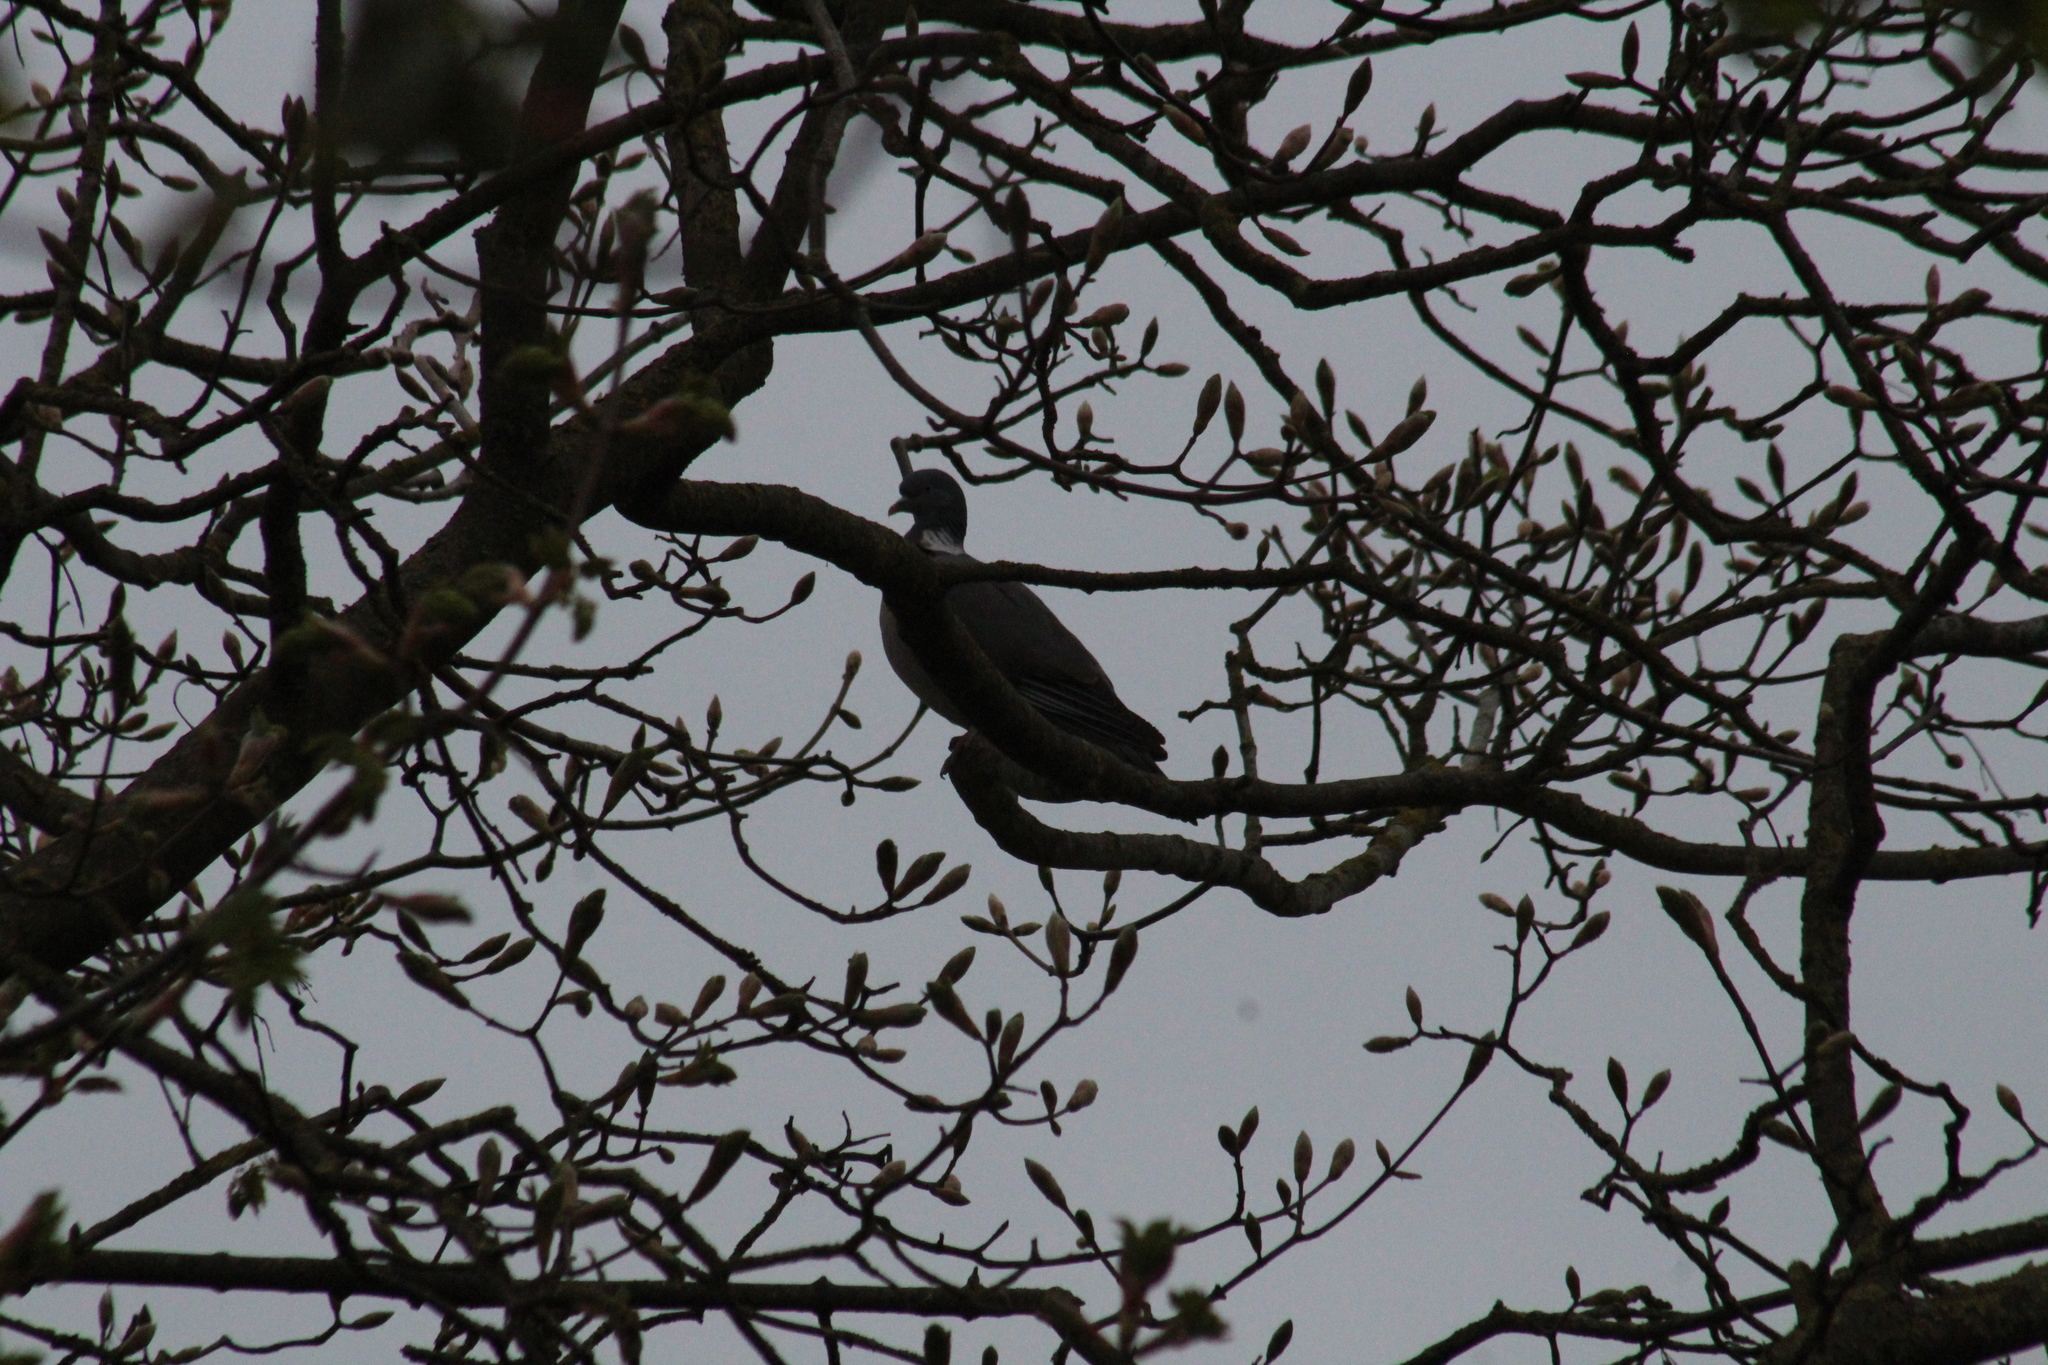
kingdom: Animalia
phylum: Chordata
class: Aves
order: Columbiformes
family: Columbidae
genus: Columba
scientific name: Columba palumbus
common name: Common wood pigeon
